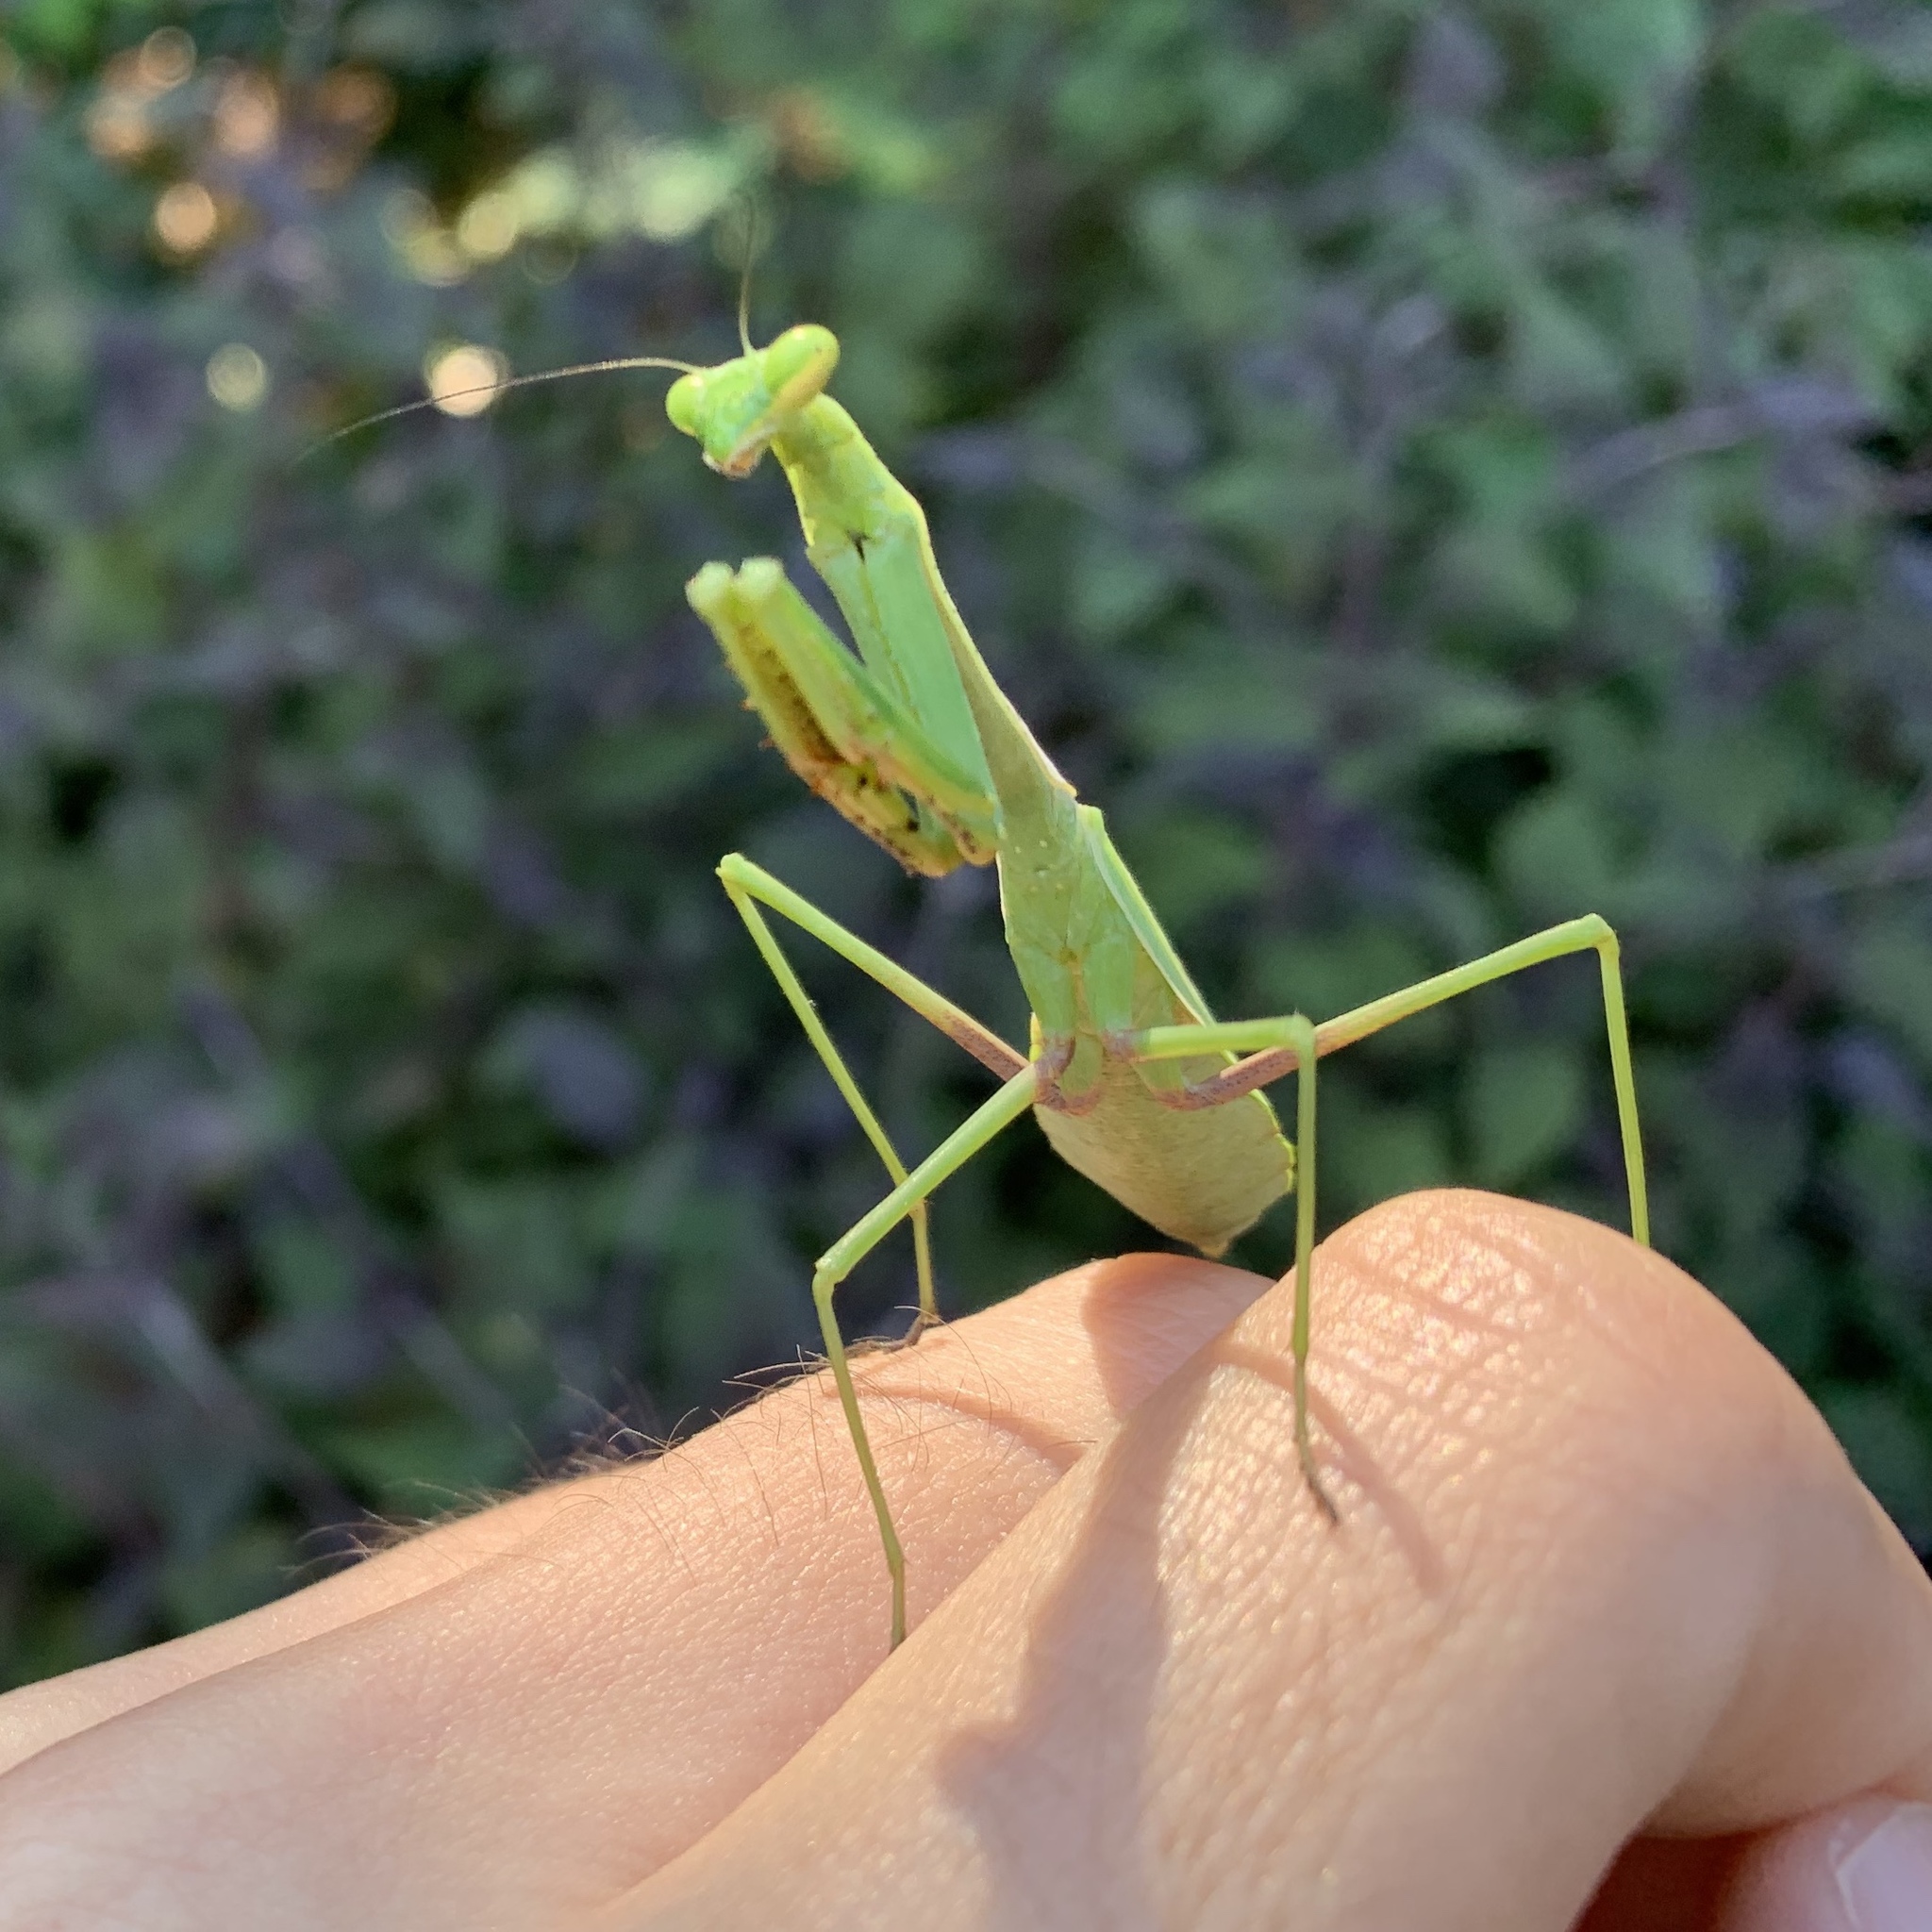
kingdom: Animalia
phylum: Arthropoda
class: Insecta
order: Mantodea
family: Mantidae
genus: Stagmomantis
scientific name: Stagmomantis carolina
